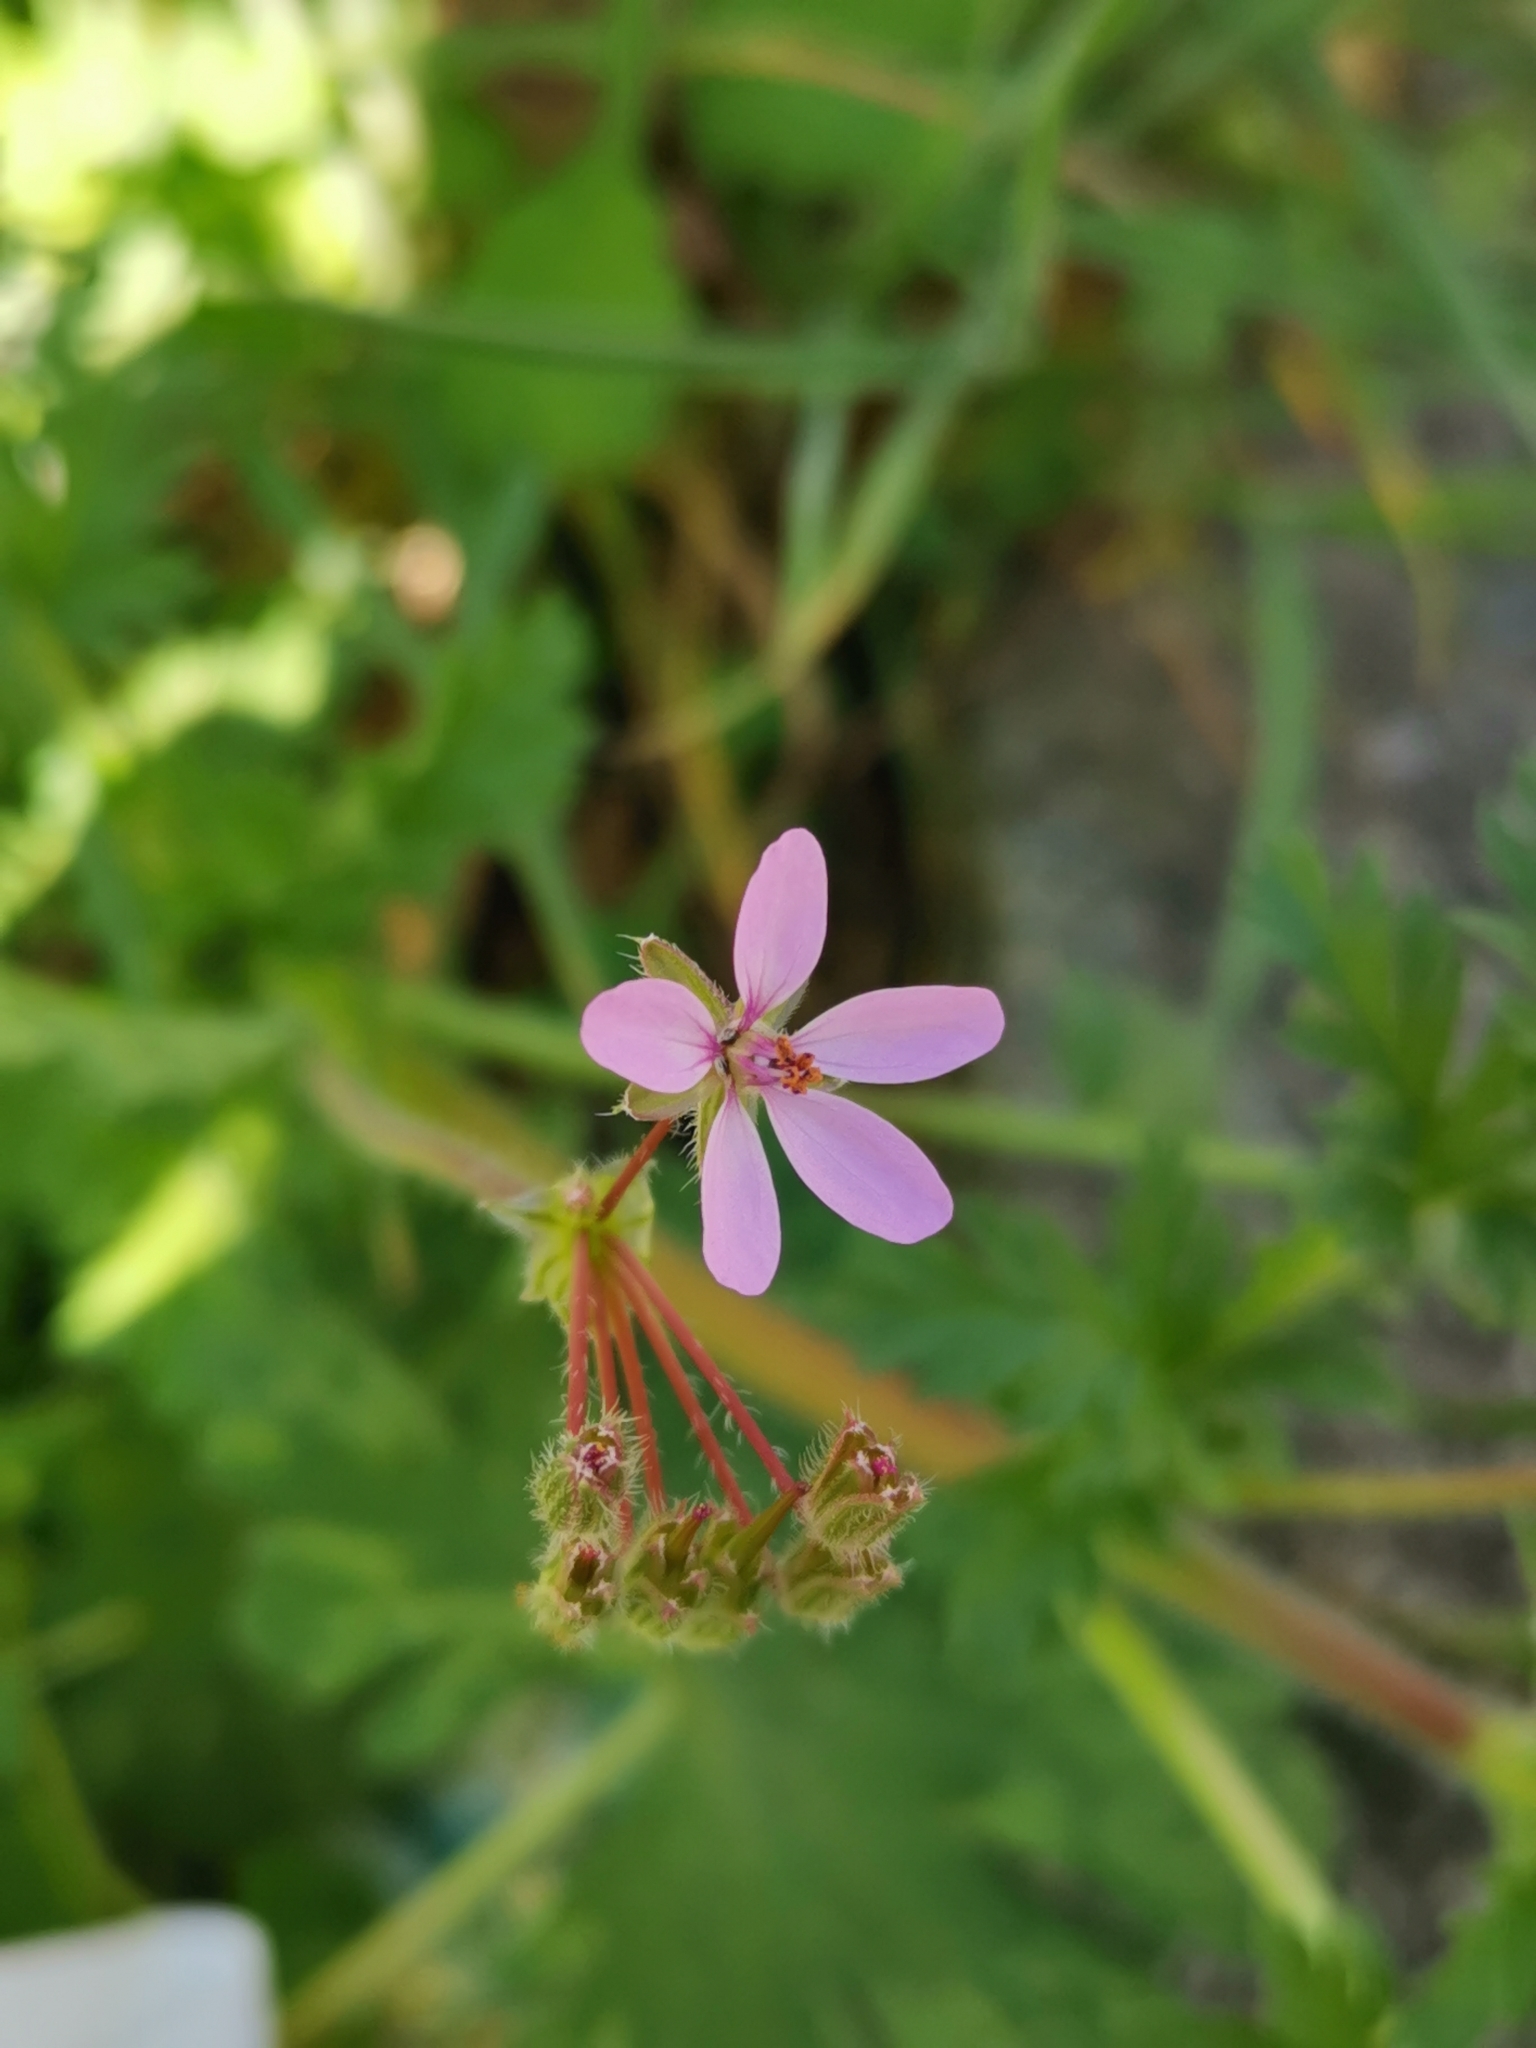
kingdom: Plantae
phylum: Tracheophyta
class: Magnoliopsida
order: Geraniales
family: Geraniaceae
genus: Erodium
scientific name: Erodium cicutarium
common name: Common stork's-bill
